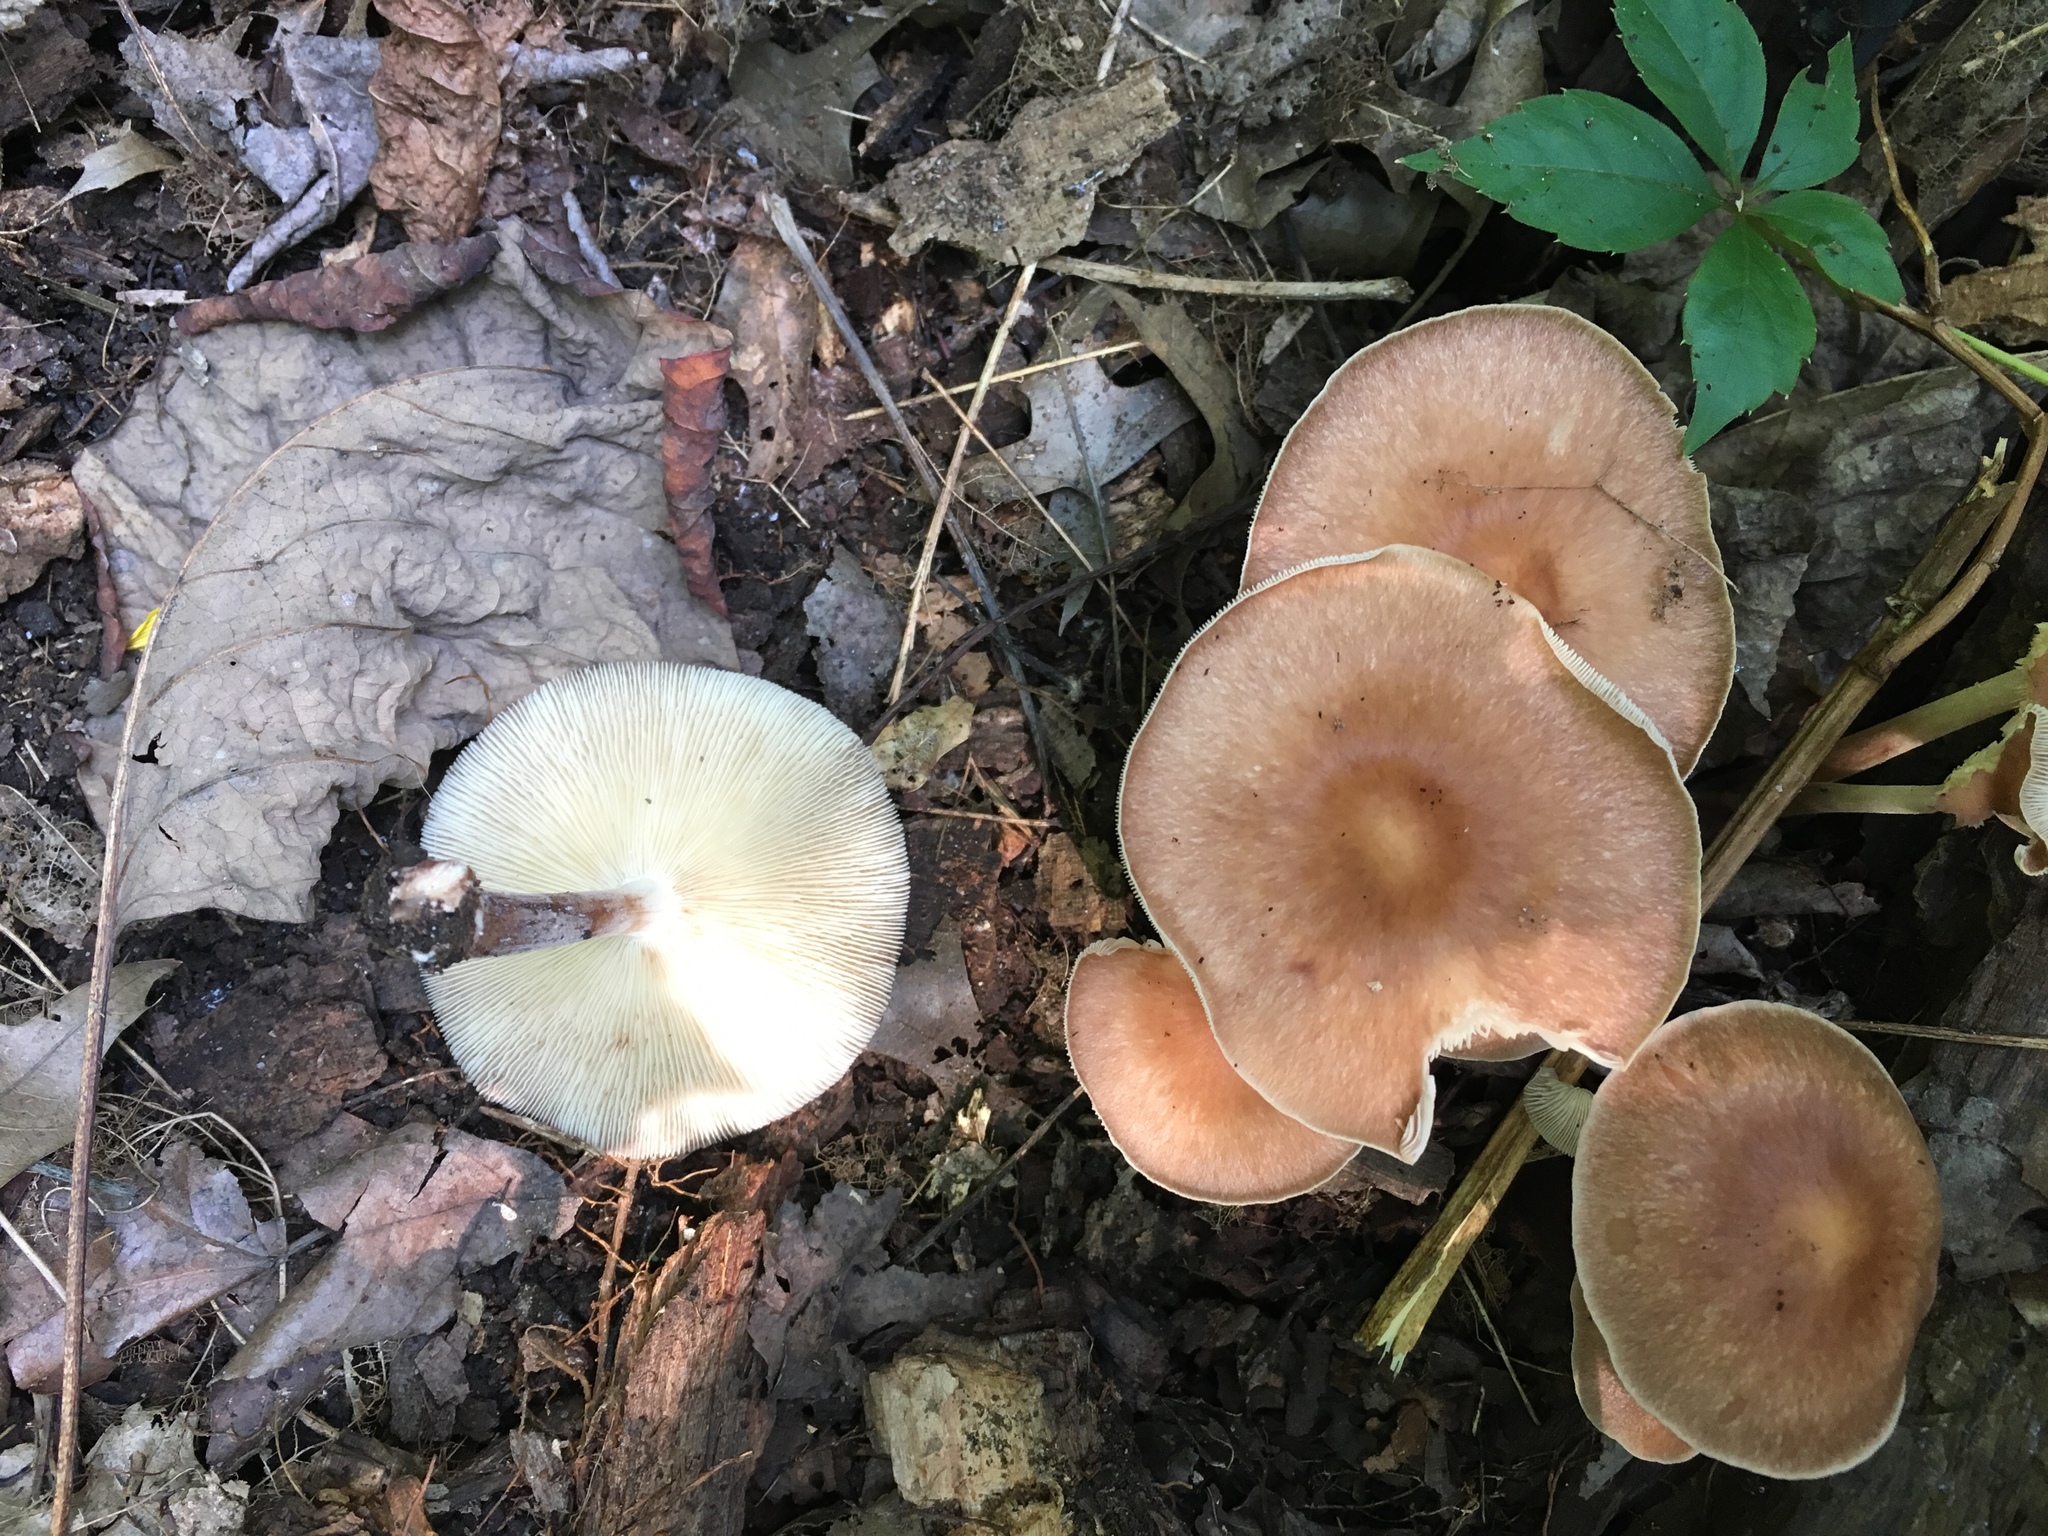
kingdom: Fungi
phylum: Basidiomycota
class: Agaricomycetes
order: Agaricales
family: Omphalotaceae
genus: Gymnopus
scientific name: Gymnopus dryophilus
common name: Penny top
